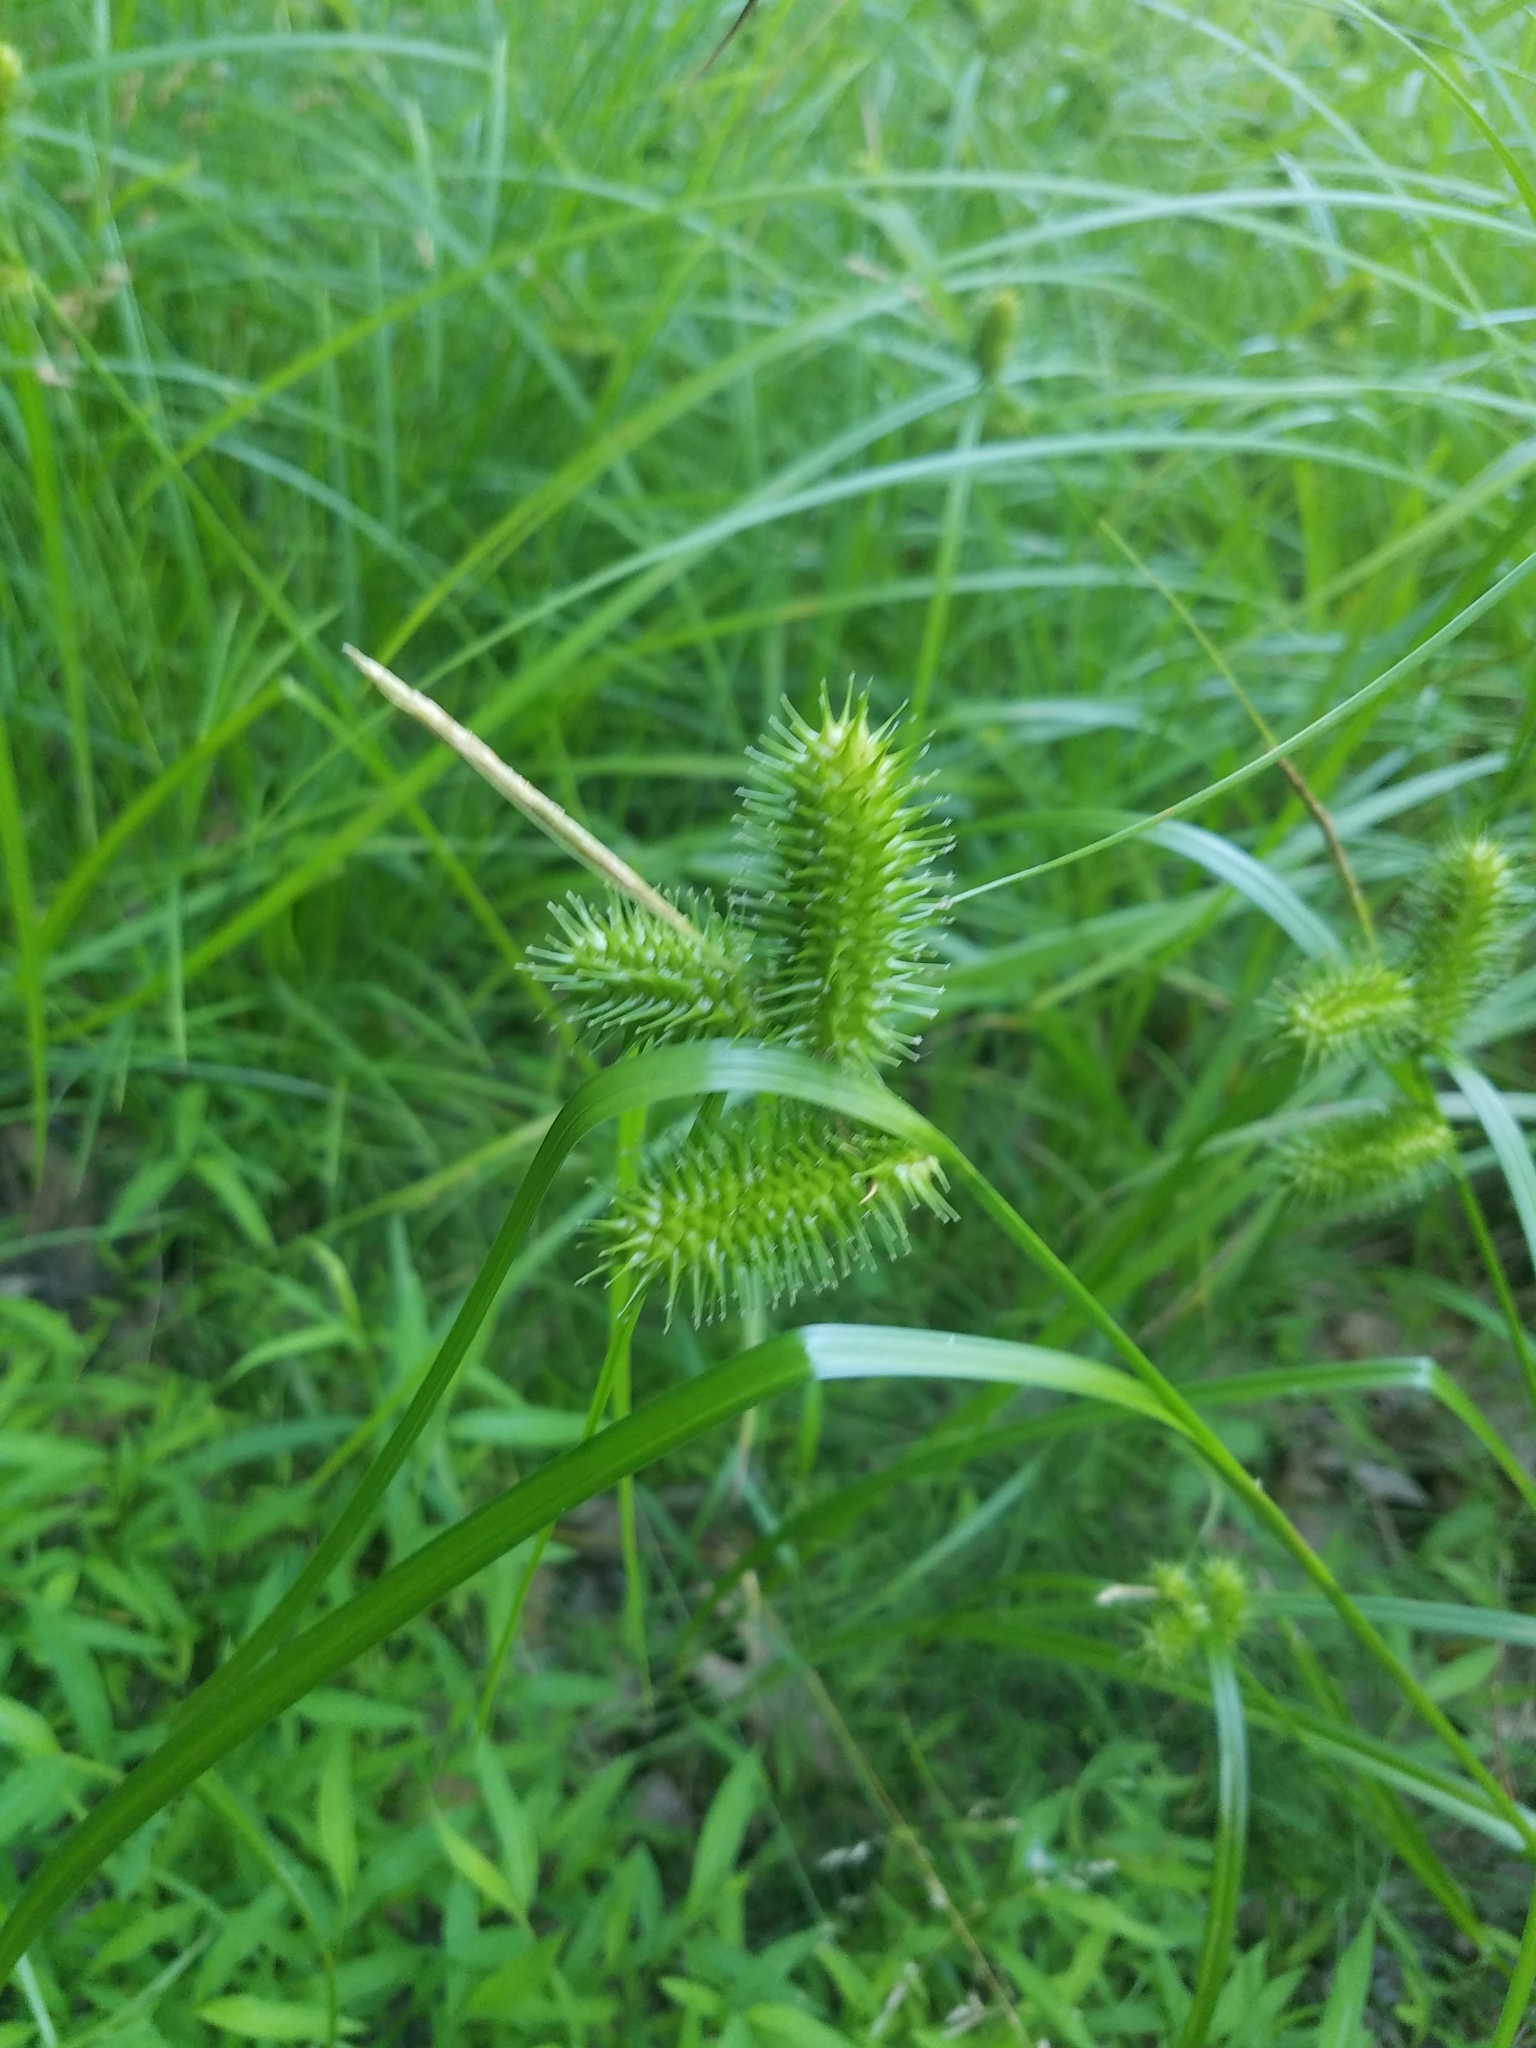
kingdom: Plantae
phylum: Tracheophyta
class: Liliopsida
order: Poales
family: Cyperaceae
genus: Carex
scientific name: Carex lurida
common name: Sallow sedge
